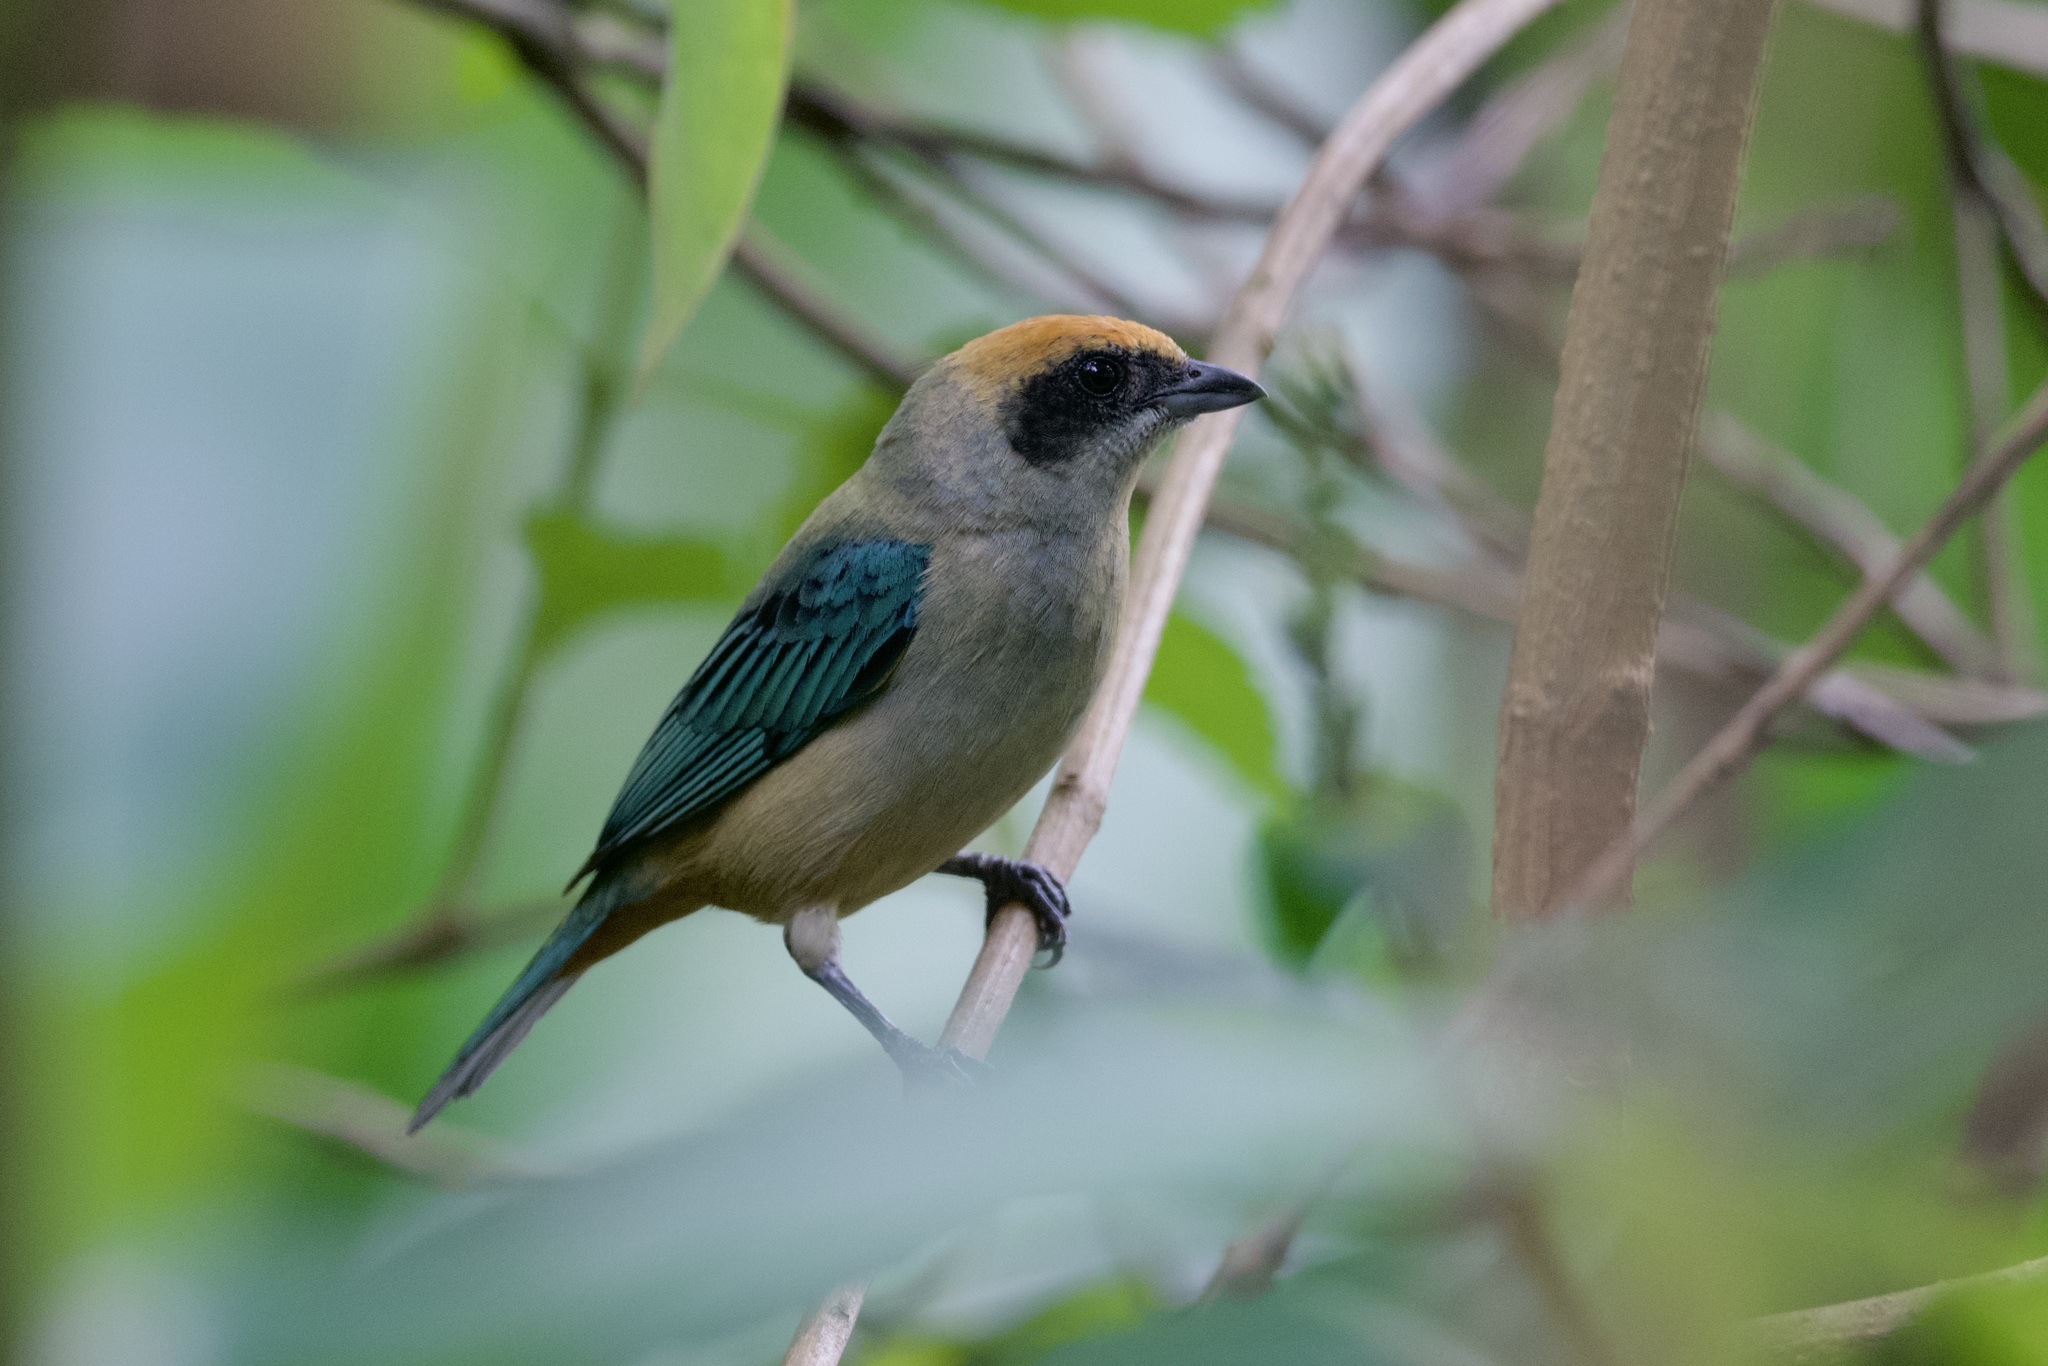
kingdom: Animalia
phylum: Chordata
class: Aves
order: Passeriformes
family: Thraupidae
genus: Stilpnia
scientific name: Stilpnia cayana
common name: Burnished-buff tanager
